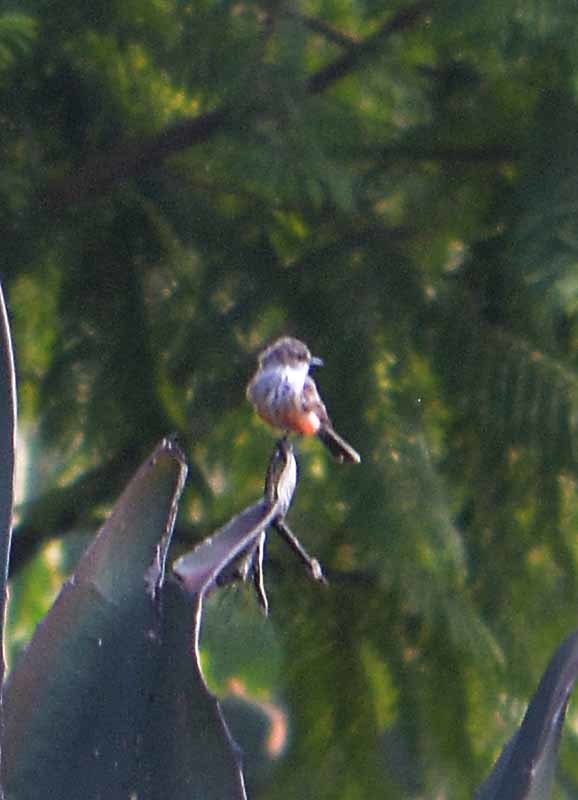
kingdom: Animalia
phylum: Chordata
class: Aves
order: Passeriformes
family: Tyrannidae
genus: Pyrocephalus
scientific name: Pyrocephalus rubinus
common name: Vermilion flycatcher
